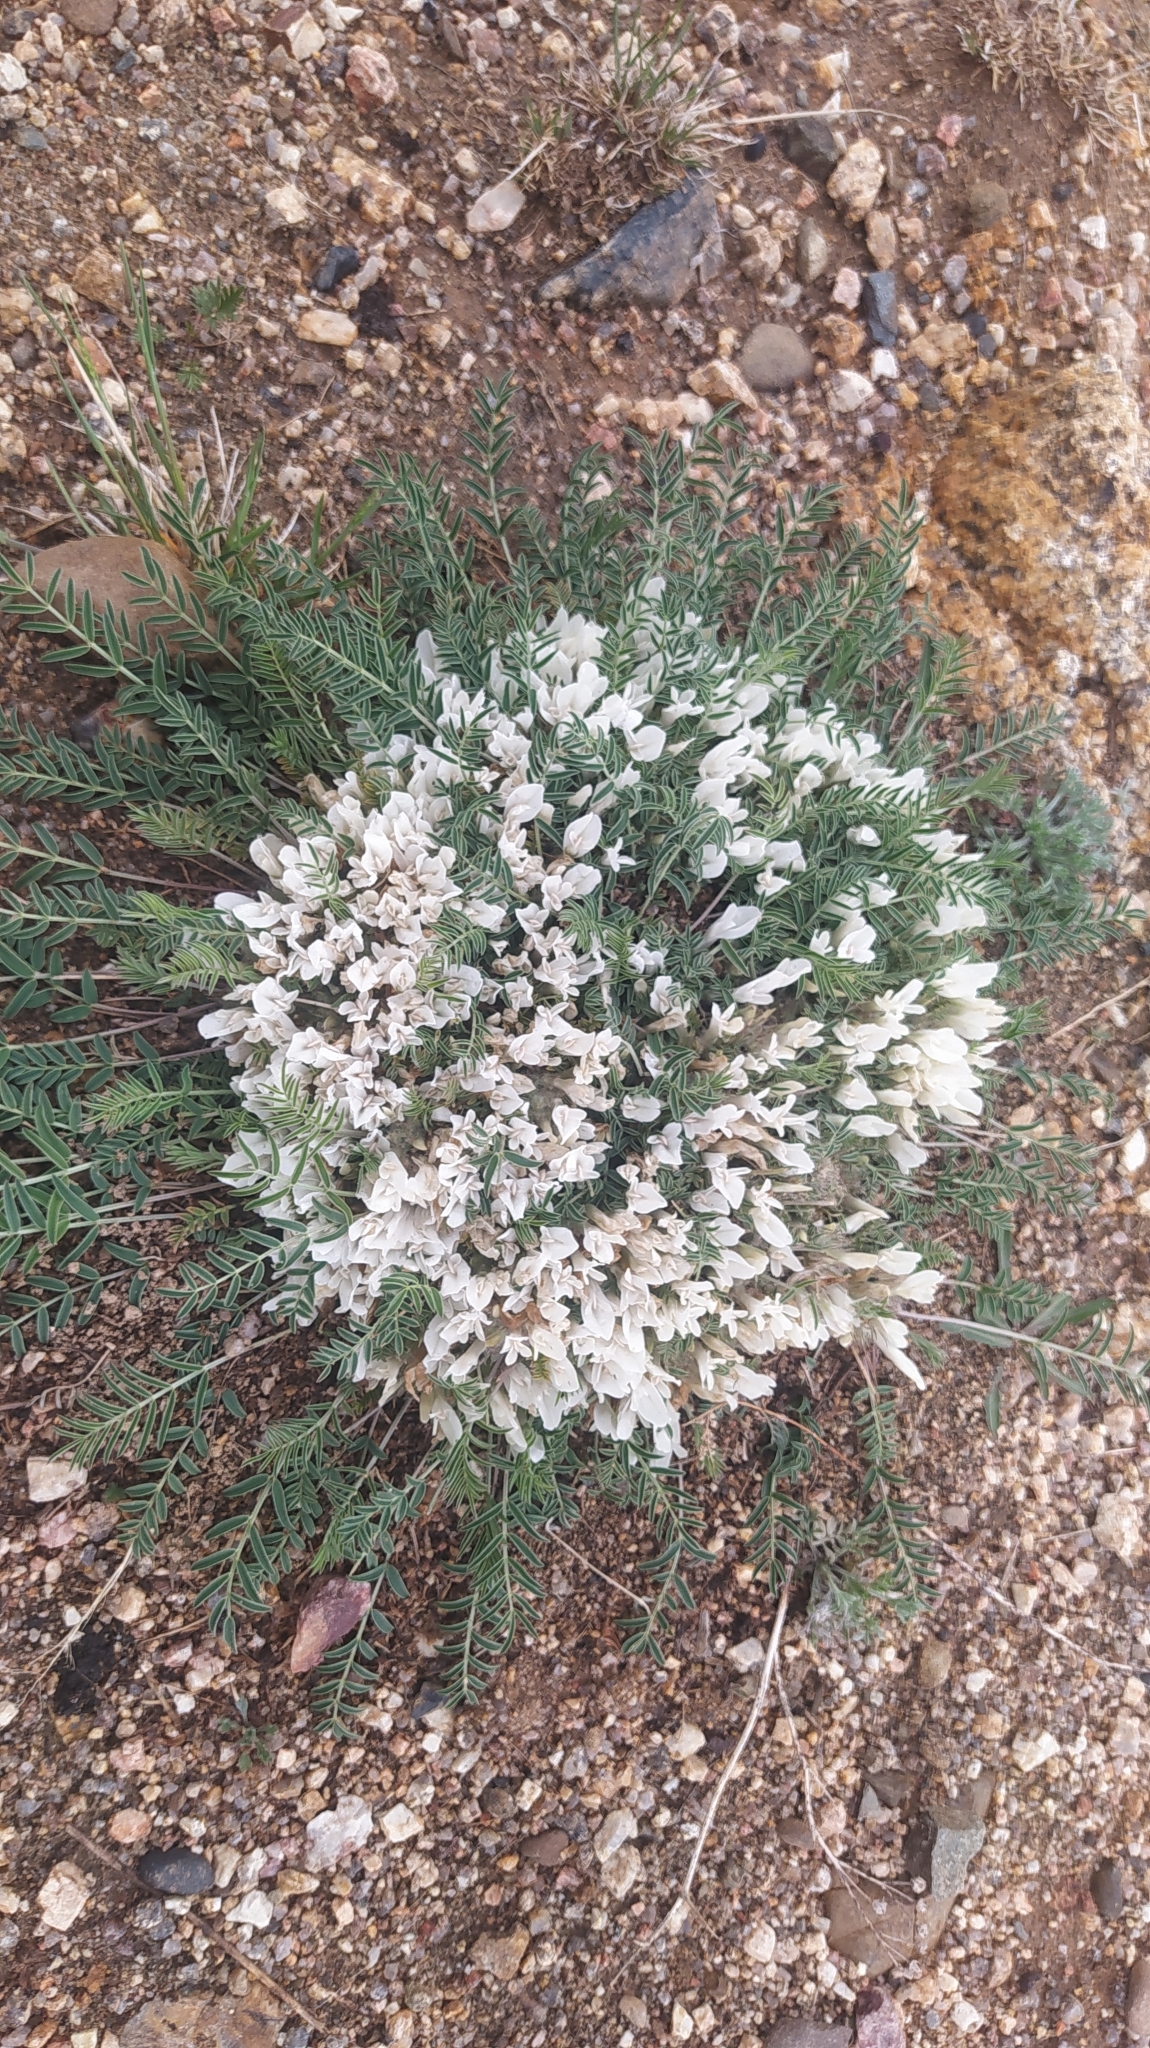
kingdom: Plantae
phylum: Tracheophyta
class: Magnoliopsida
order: Fabales
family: Fabaceae
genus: Astragalus
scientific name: Astragalus galactites
